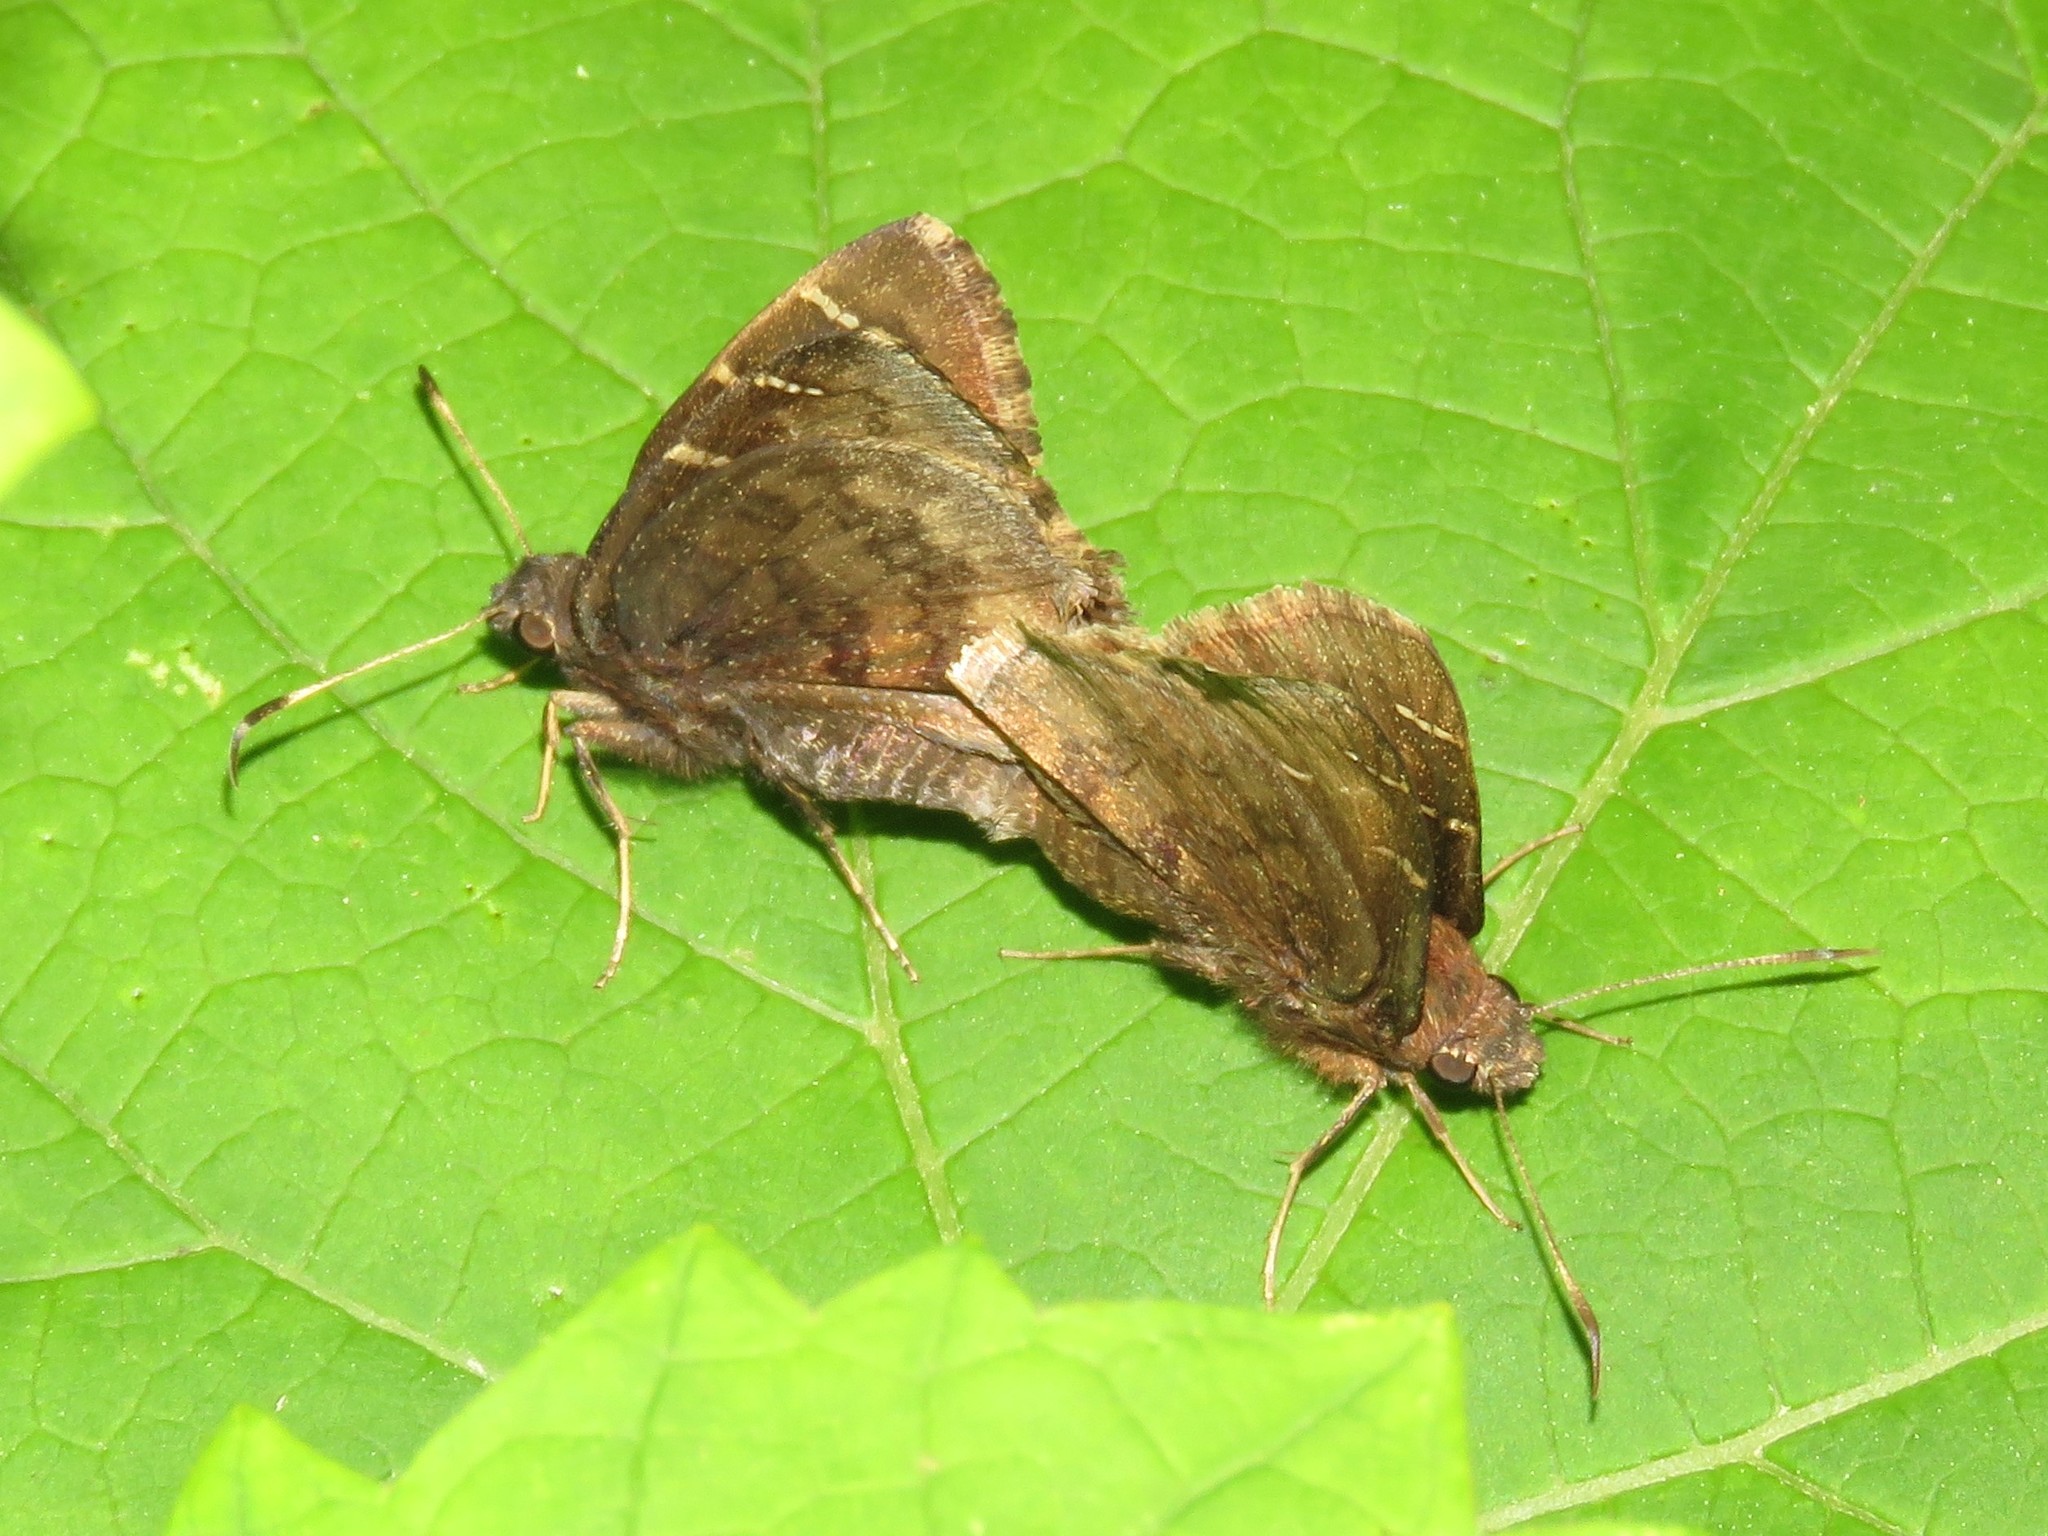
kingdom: Animalia
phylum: Arthropoda
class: Insecta
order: Lepidoptera
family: Hesperiidae
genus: Thorybes
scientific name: Thorybes pylades
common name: Northern cloudywing
